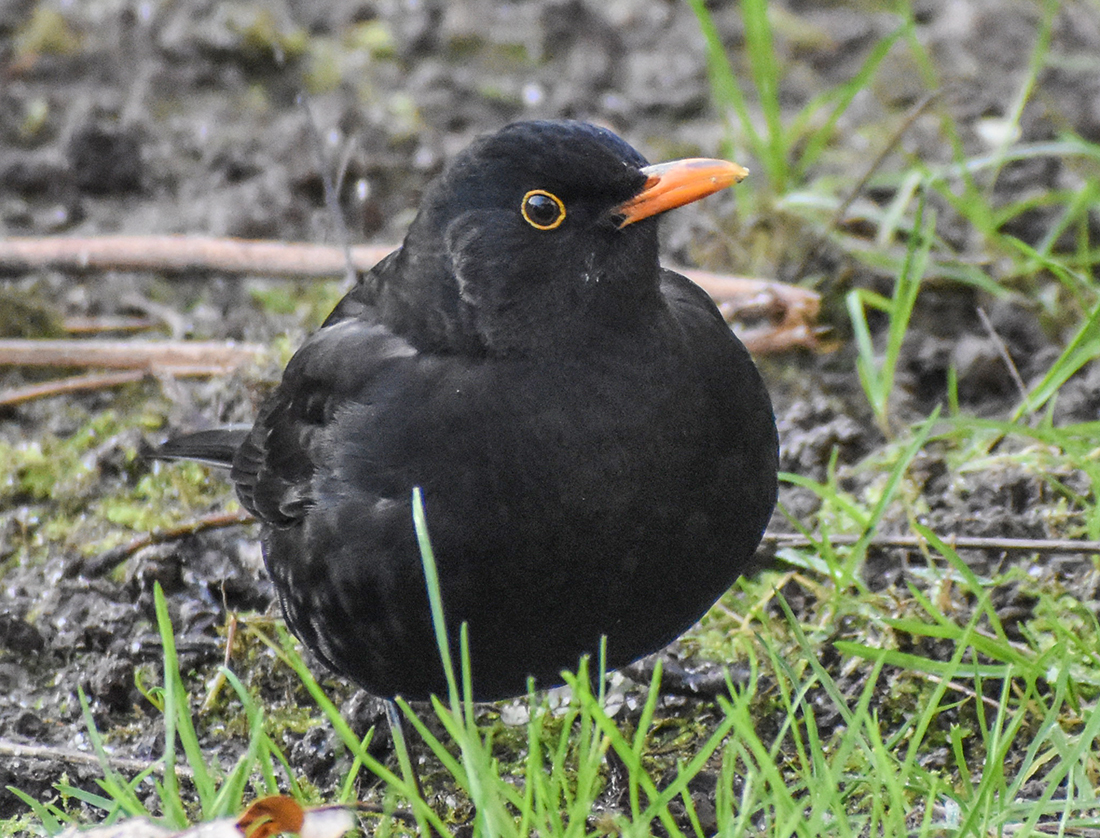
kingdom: Animalia
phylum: Chordata
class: Aves
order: Passeriformes
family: Turdidae
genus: Turdus
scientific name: Turdus merula
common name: Common blackbird
